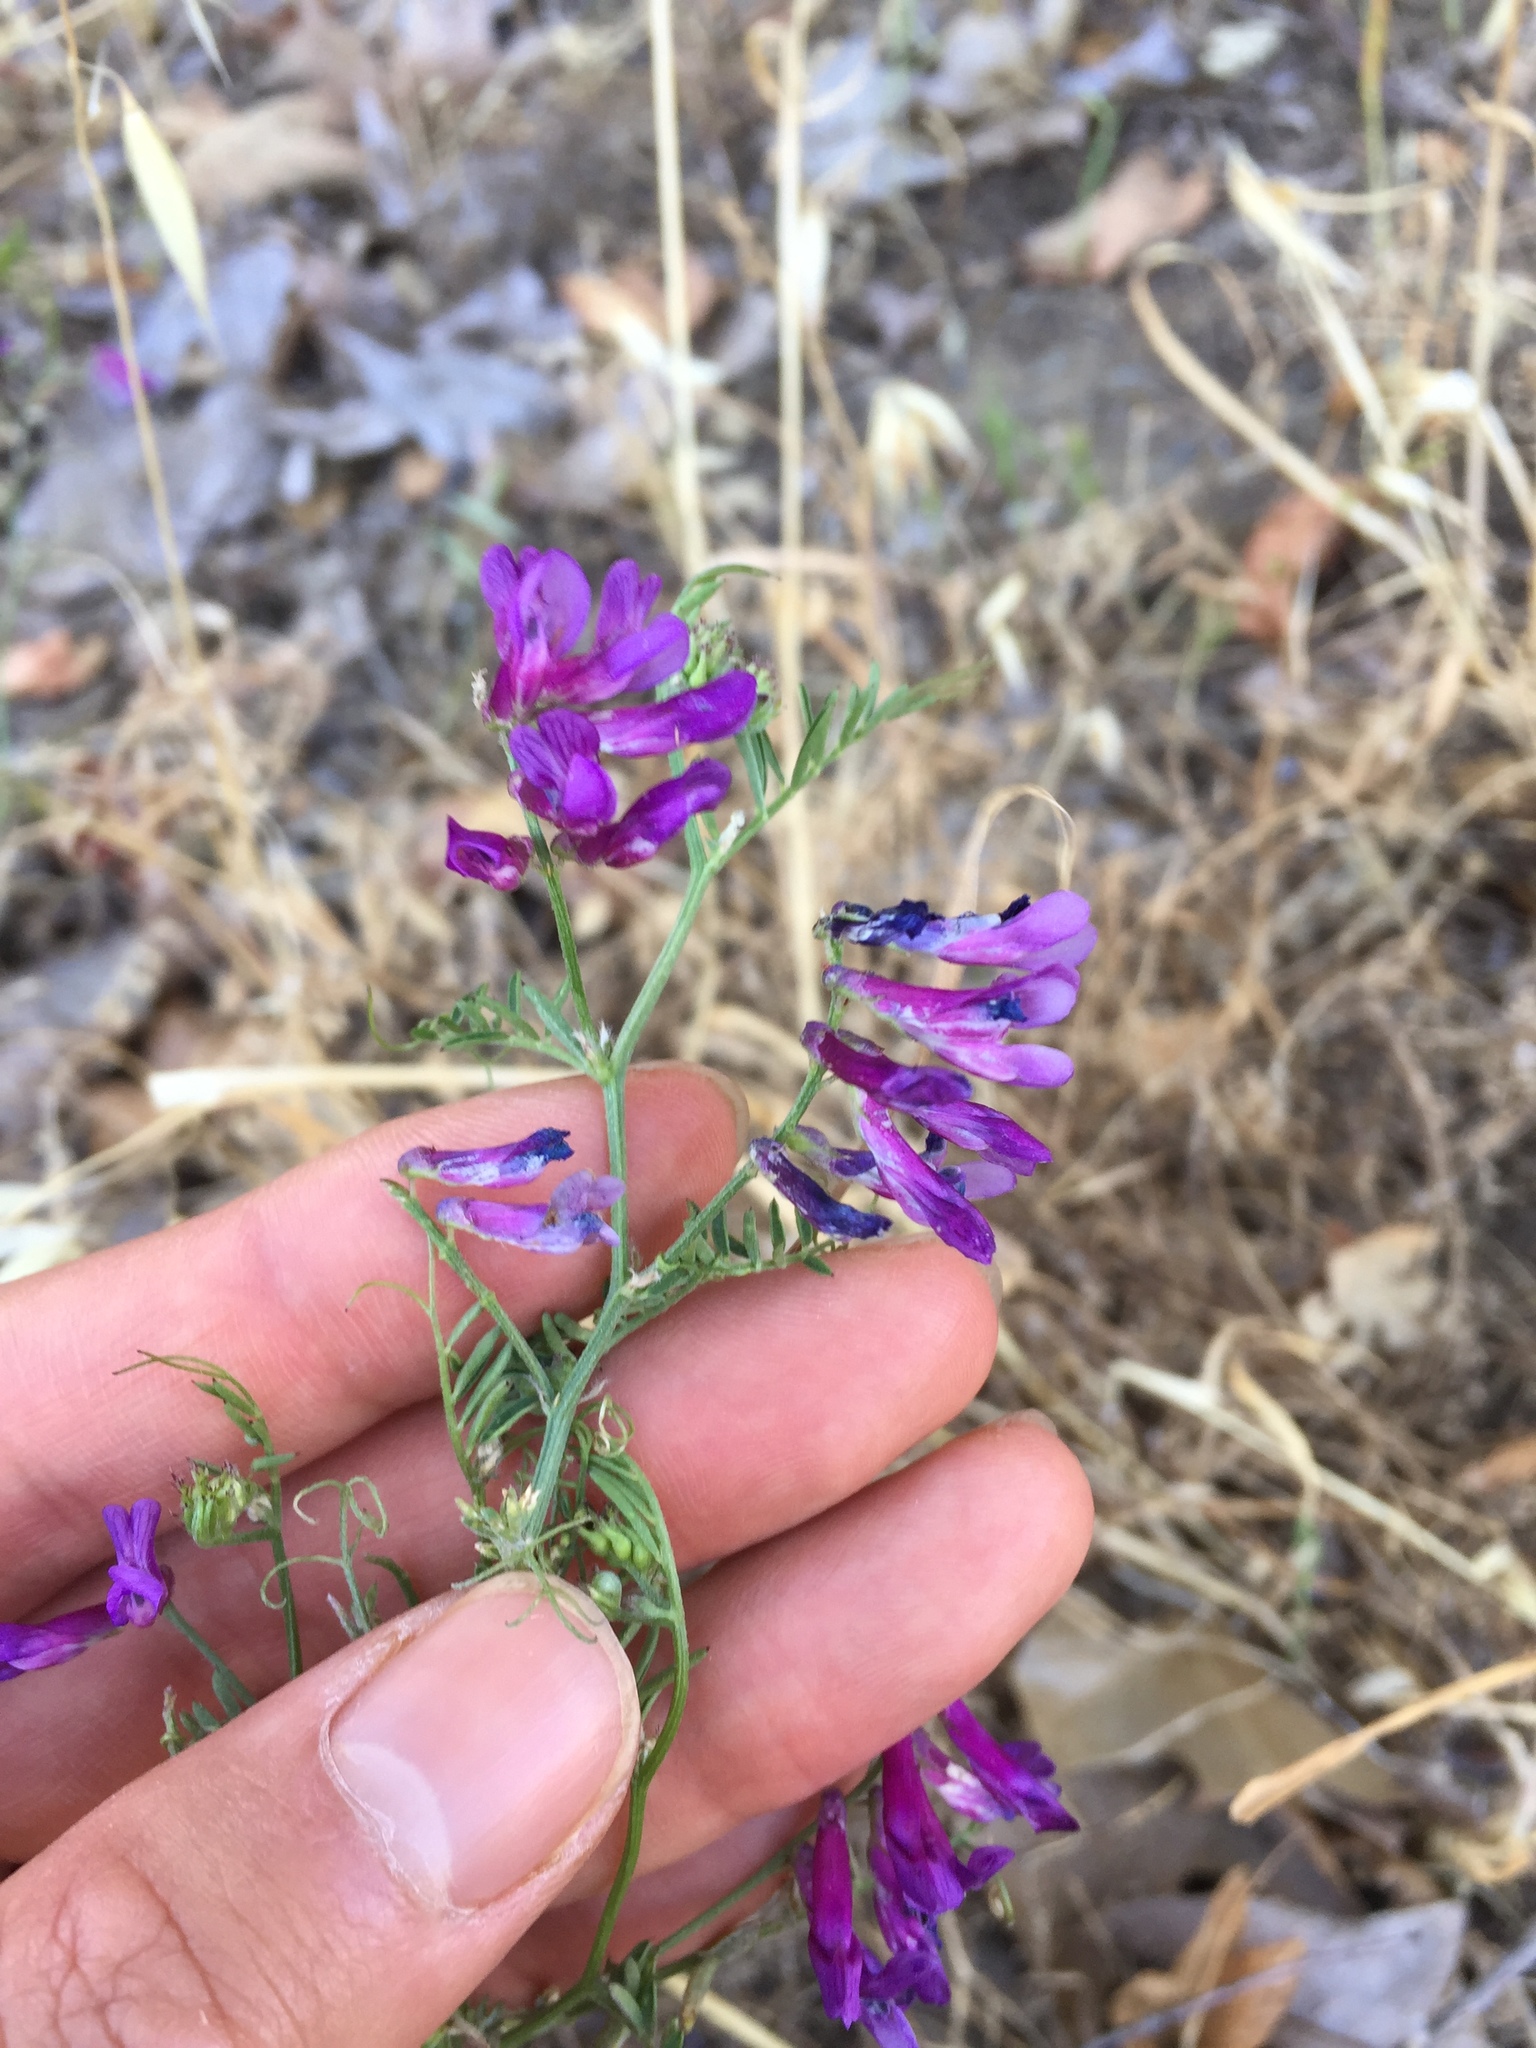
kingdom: Plantae
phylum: Tracheophyta
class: Magnoliopsida
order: Fabales
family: Fabaceae
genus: Vicia
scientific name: Vicia villosa
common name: Fodder vetch
